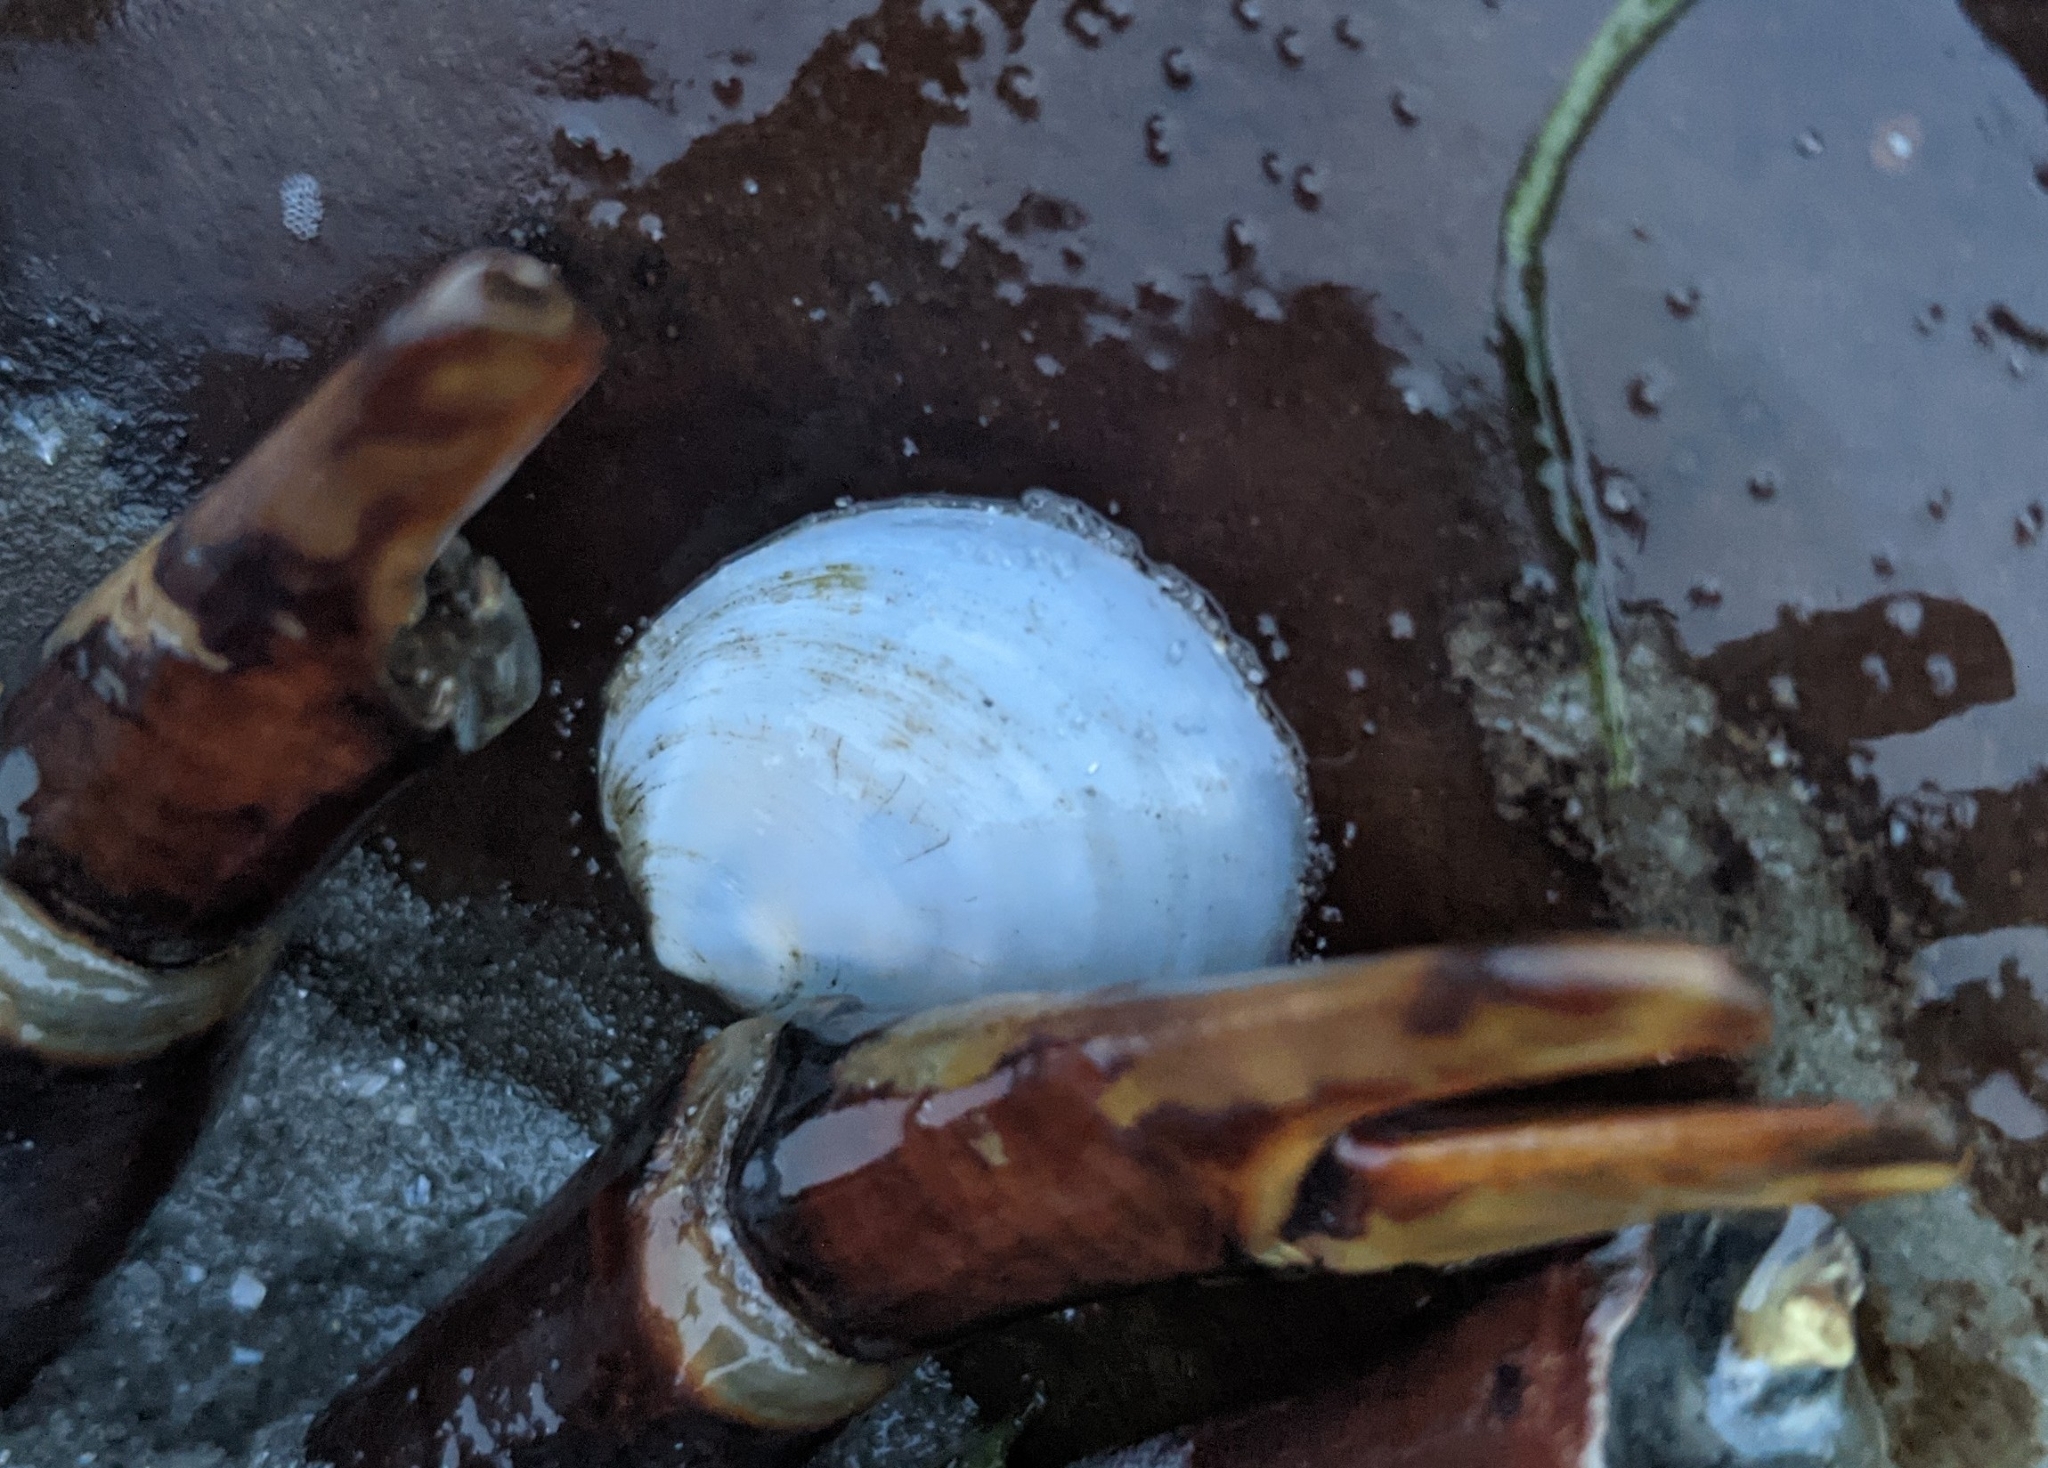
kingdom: Animalia
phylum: Mollusca
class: Gastropoda
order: Littorinimorpha
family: Calyptraeidae
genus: Crepidula
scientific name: Crepidula plana
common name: Eastern white slippersnail
